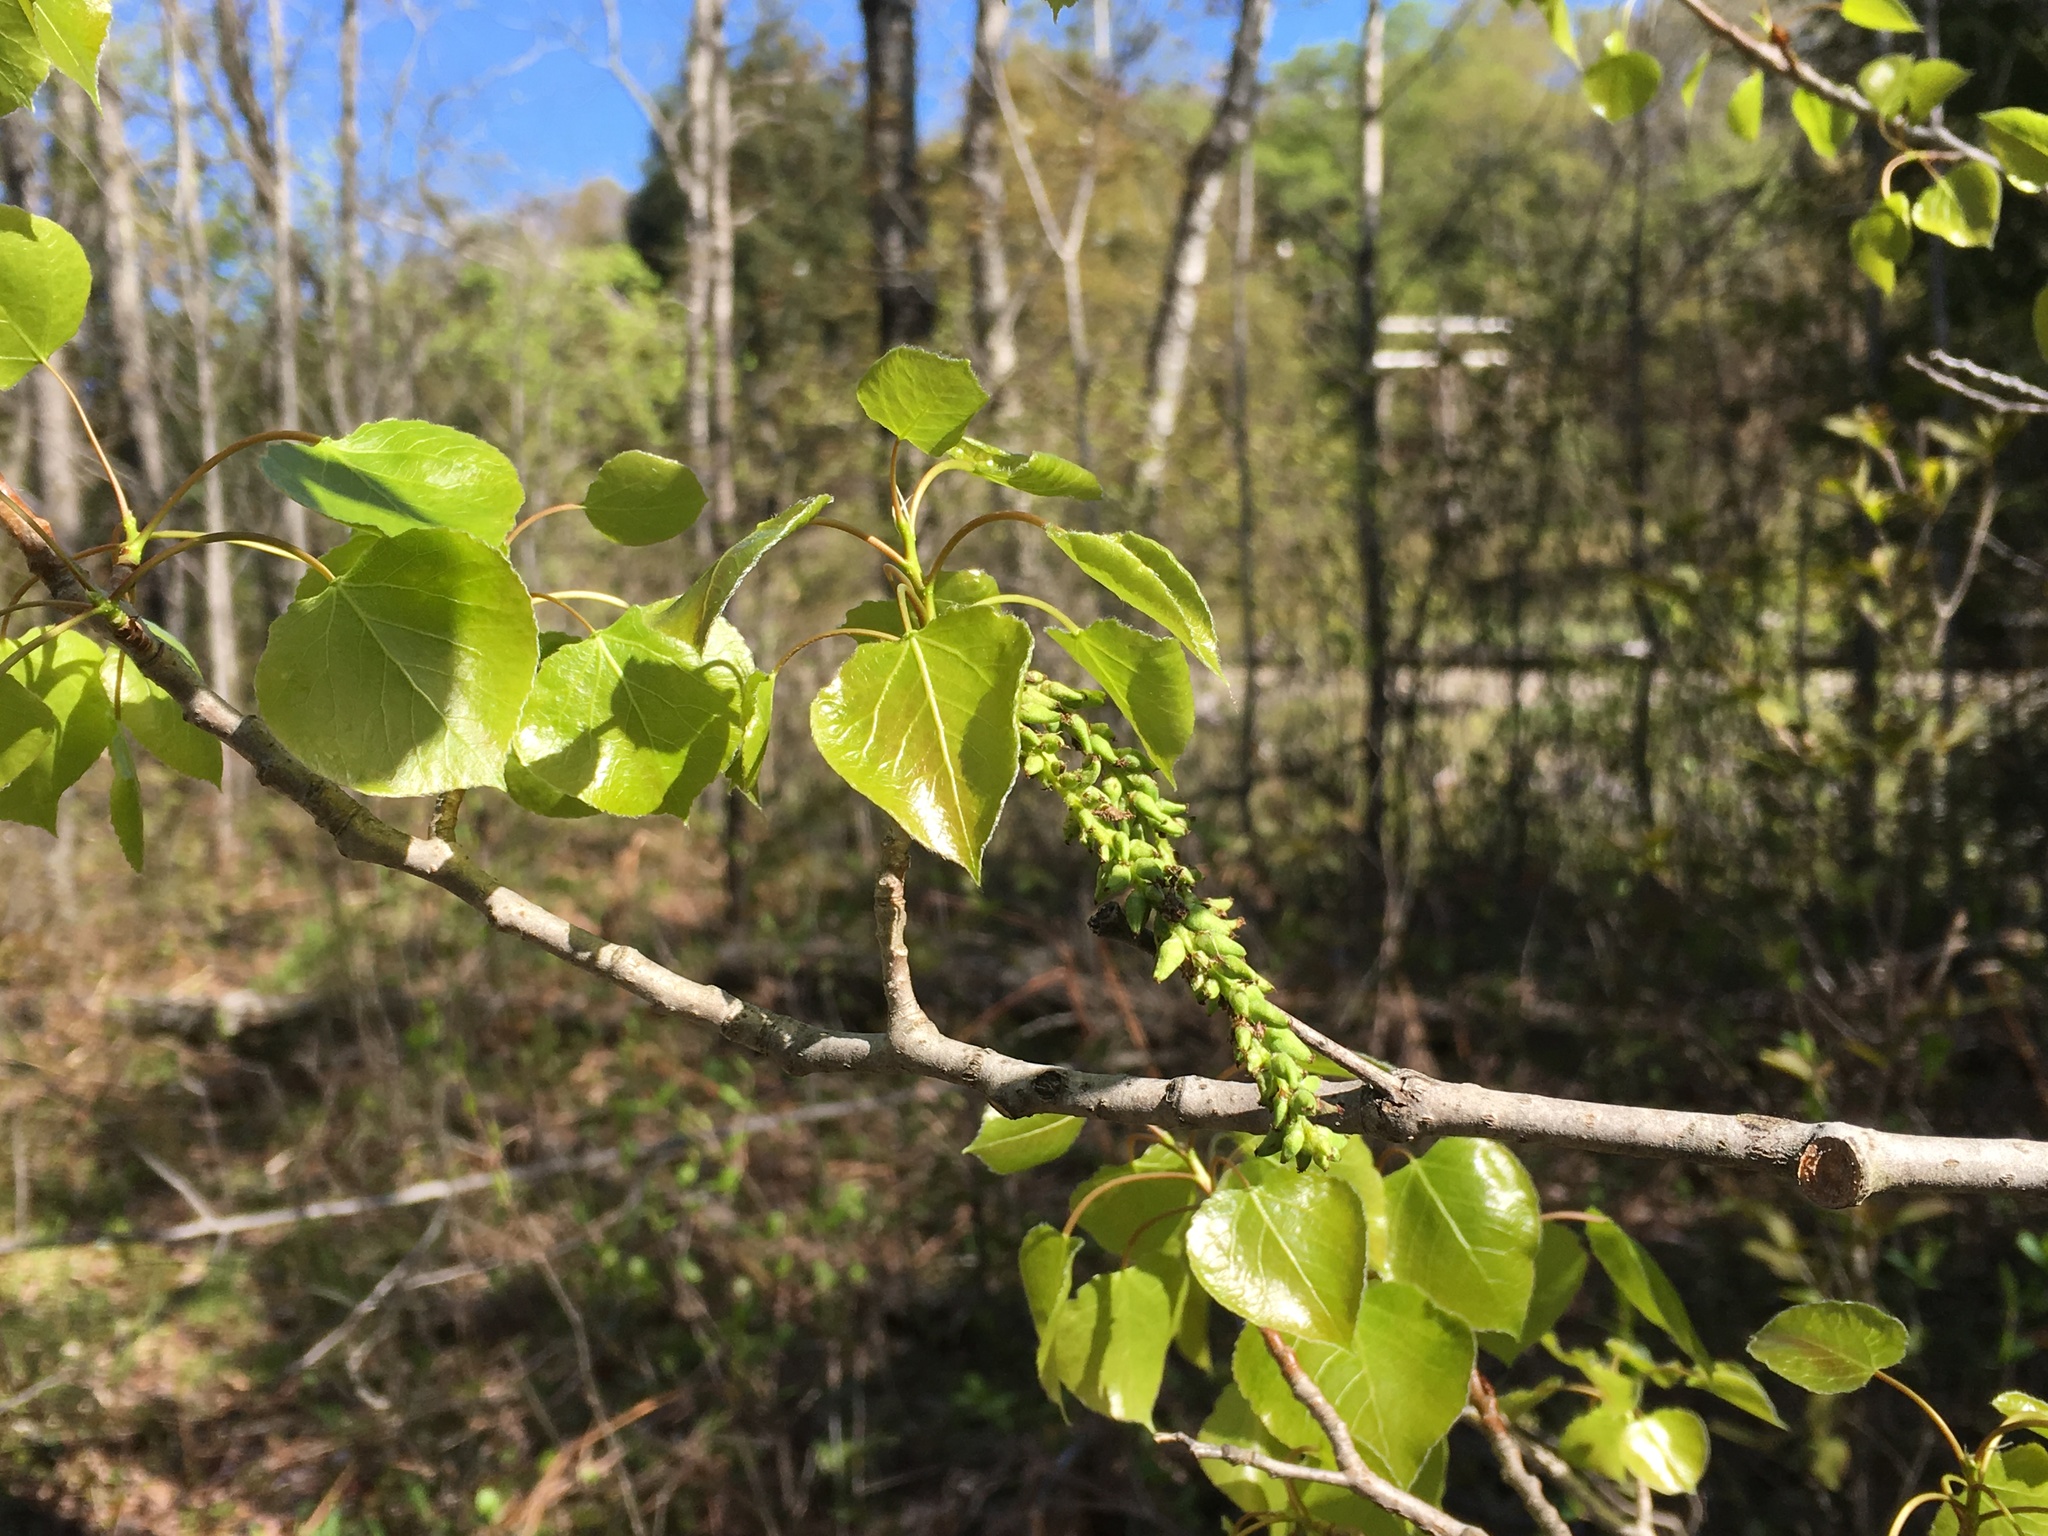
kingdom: Plantae
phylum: Tracheophyta
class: Magnoliopsida
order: Malpighiales
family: Salicaceae
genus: Populus
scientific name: Populus tremuloides
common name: Quaking aspen
